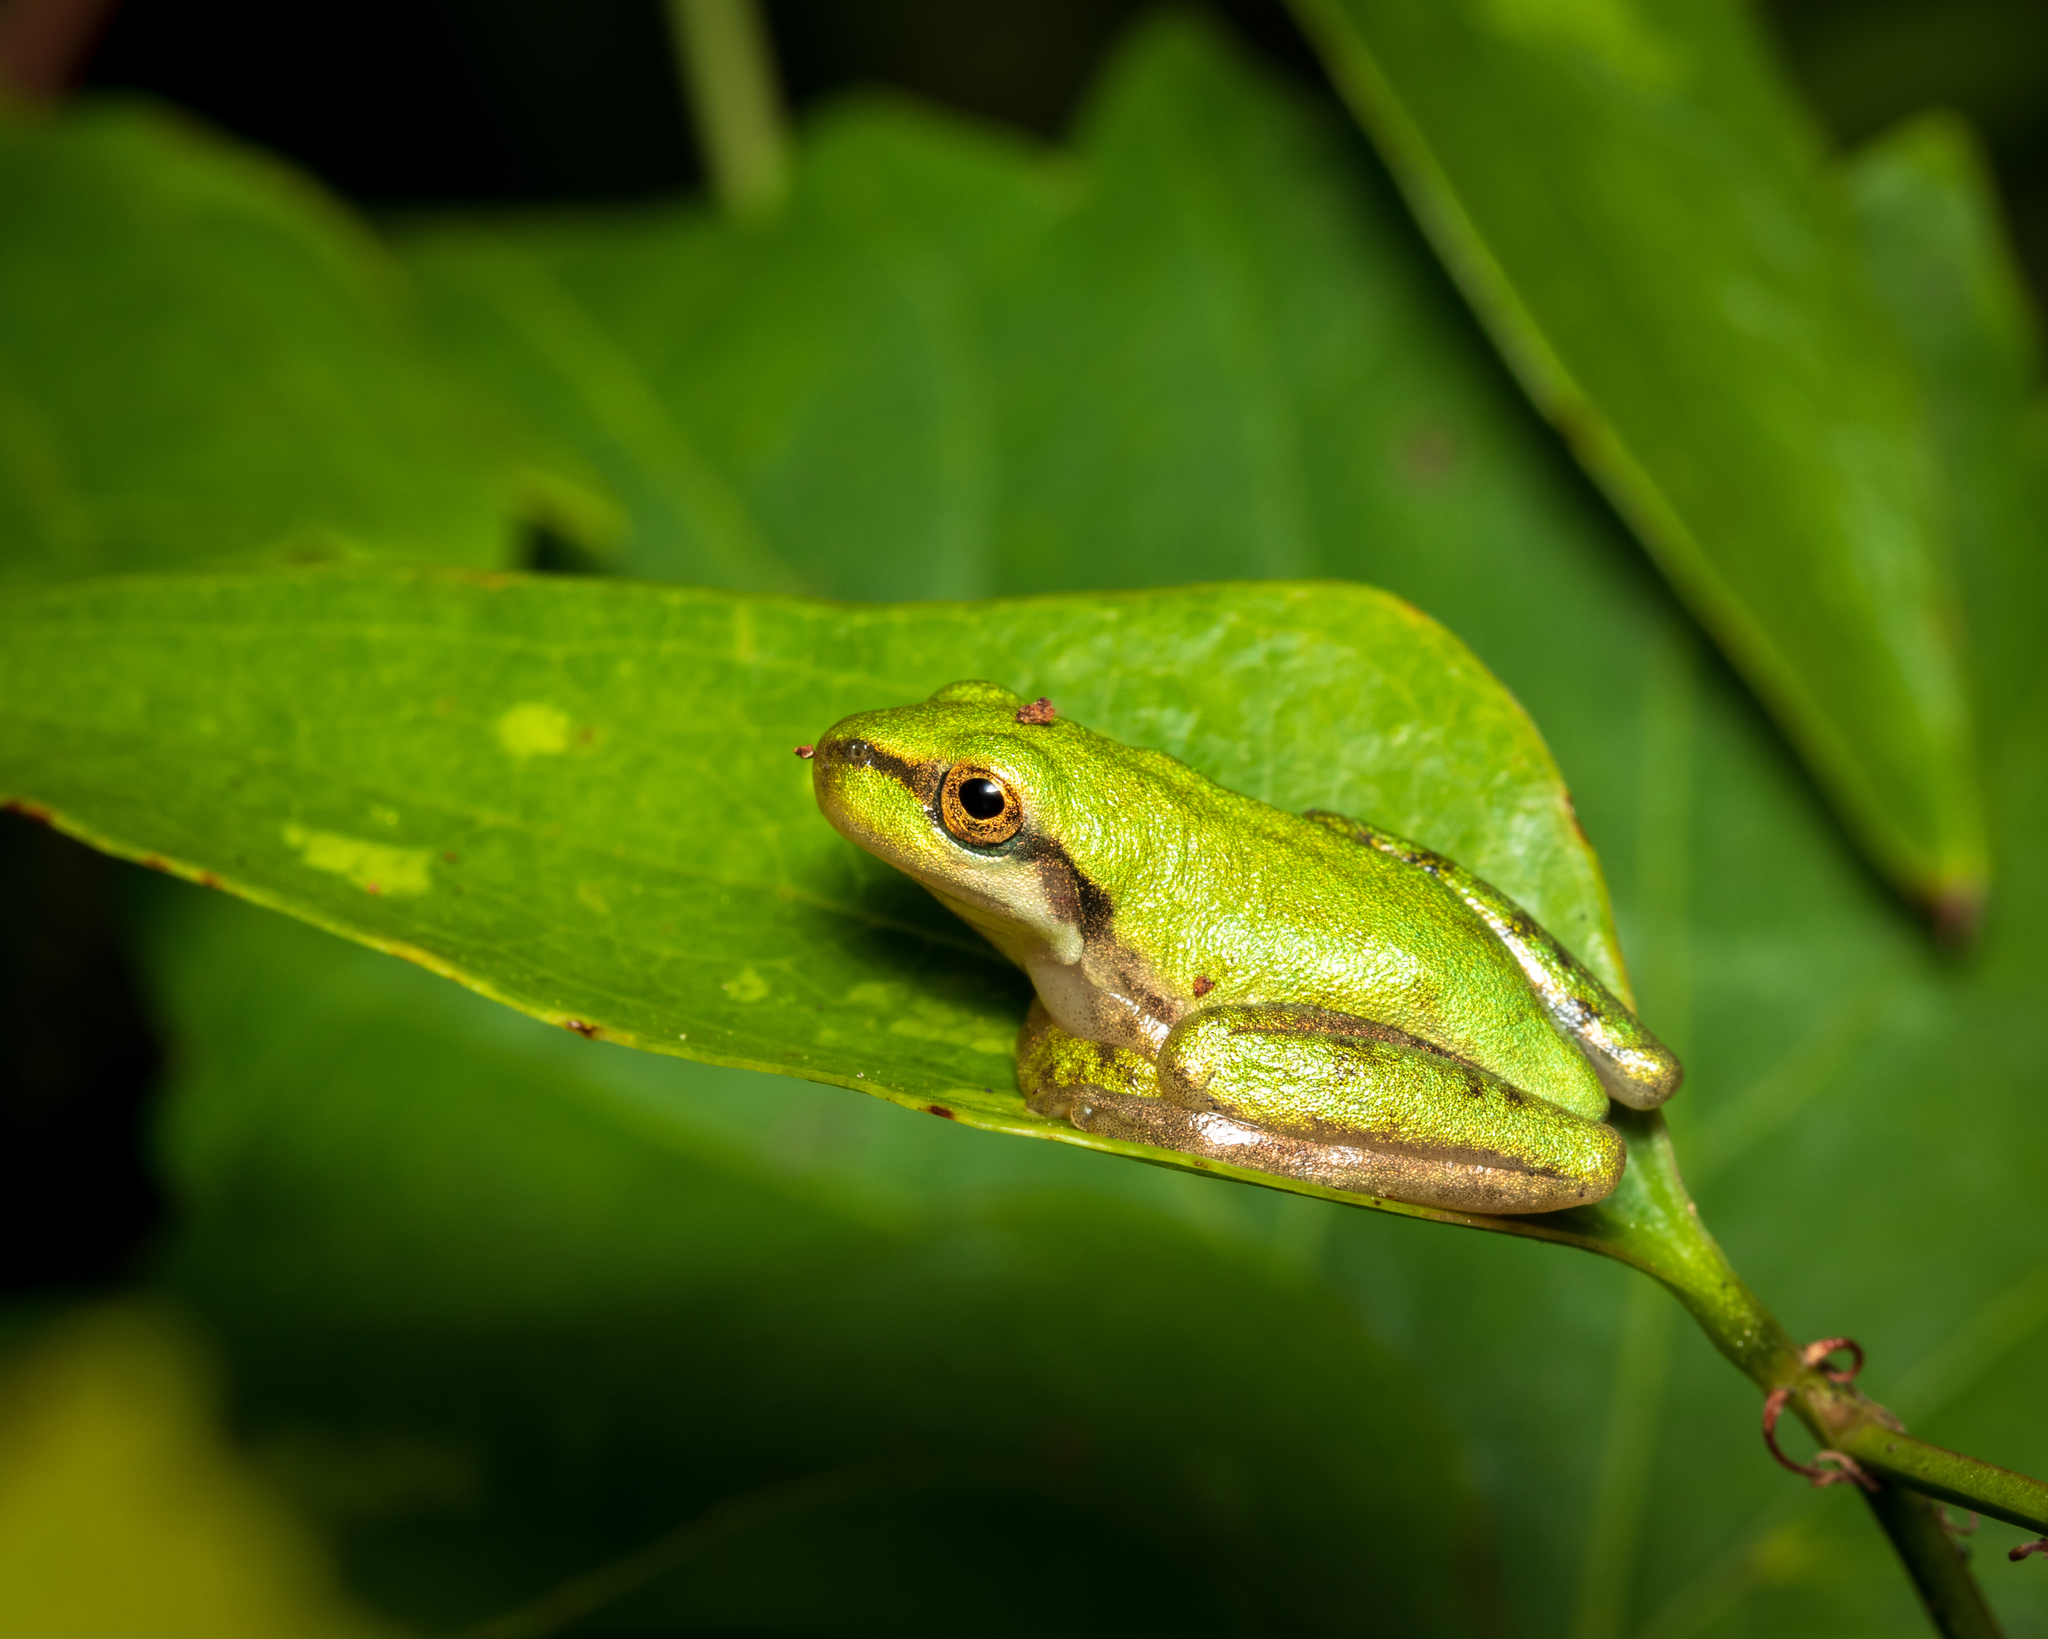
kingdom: Animalia
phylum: Chordata
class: Amphibia
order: Anura
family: Hylidae
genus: Dryophytes
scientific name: Dryophytes squirellus
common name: Squirrel treefrog
